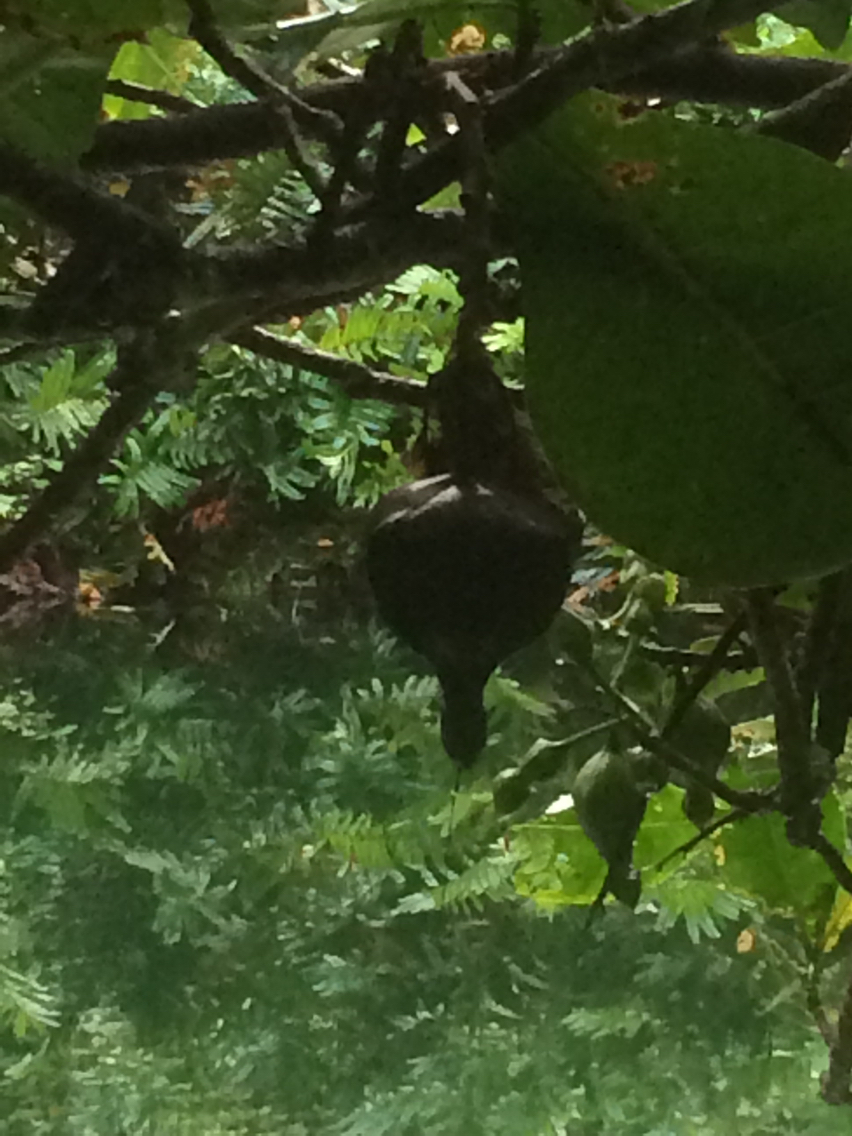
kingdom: Plantae
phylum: Tracheophyta
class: Magnoliopsida
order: Ericales
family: Lecythidaceae
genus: Barringtonia
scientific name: Barringtonia asiatica
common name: Mango-pine
